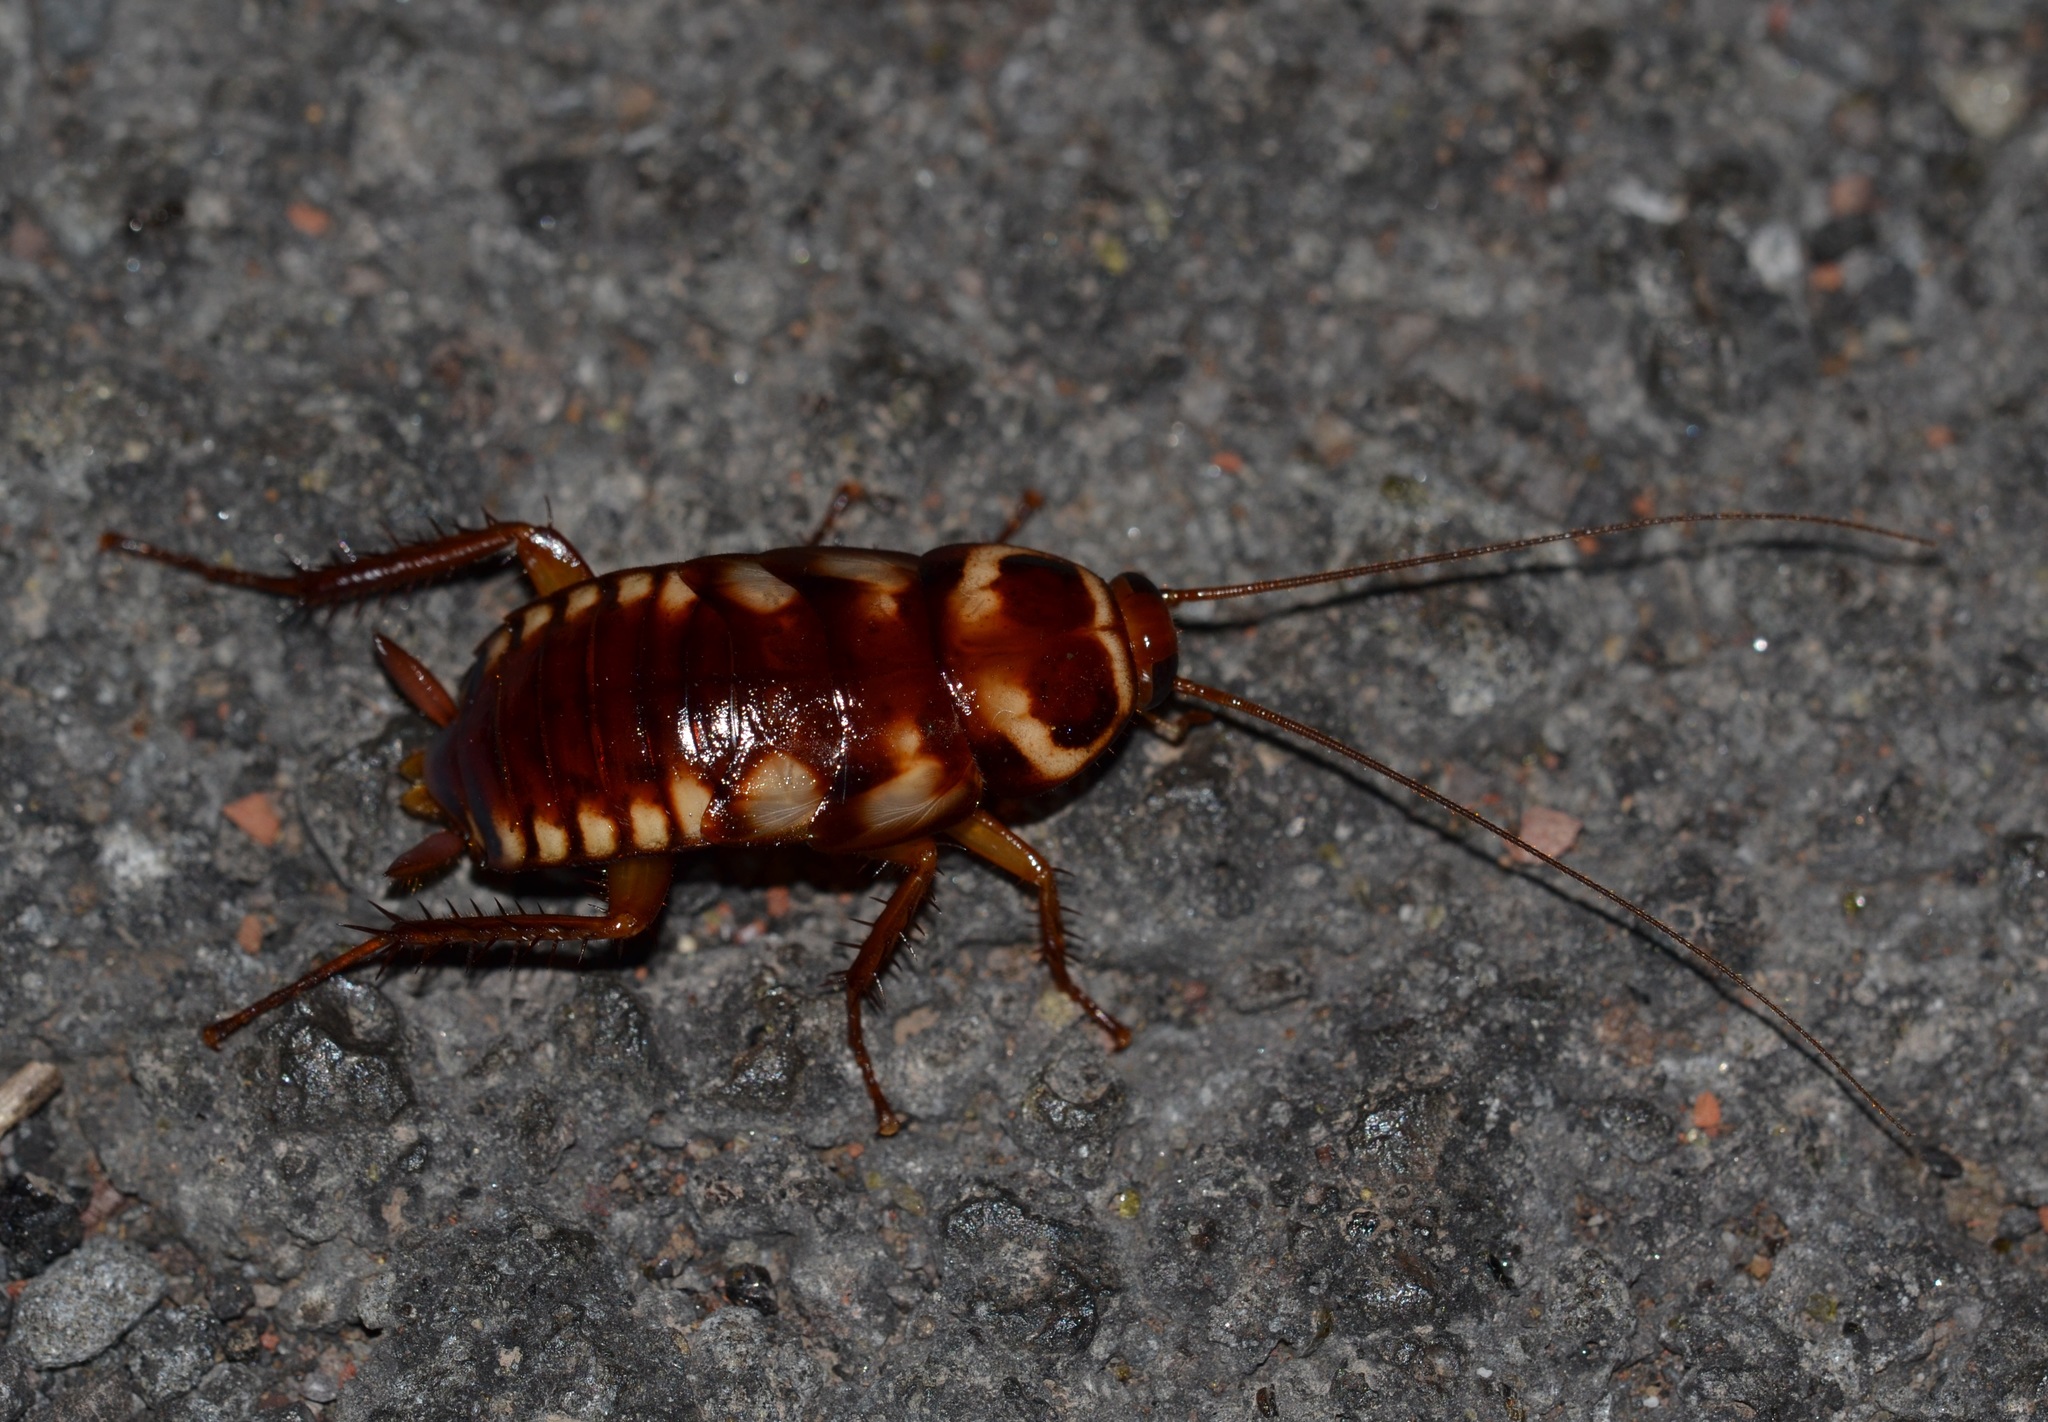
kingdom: Animalia
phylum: Arthropoda
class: Insecta
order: Blattodea
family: Blattidae
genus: Periplaneta
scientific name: Periplaneta australasiae
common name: Australian cockroach
